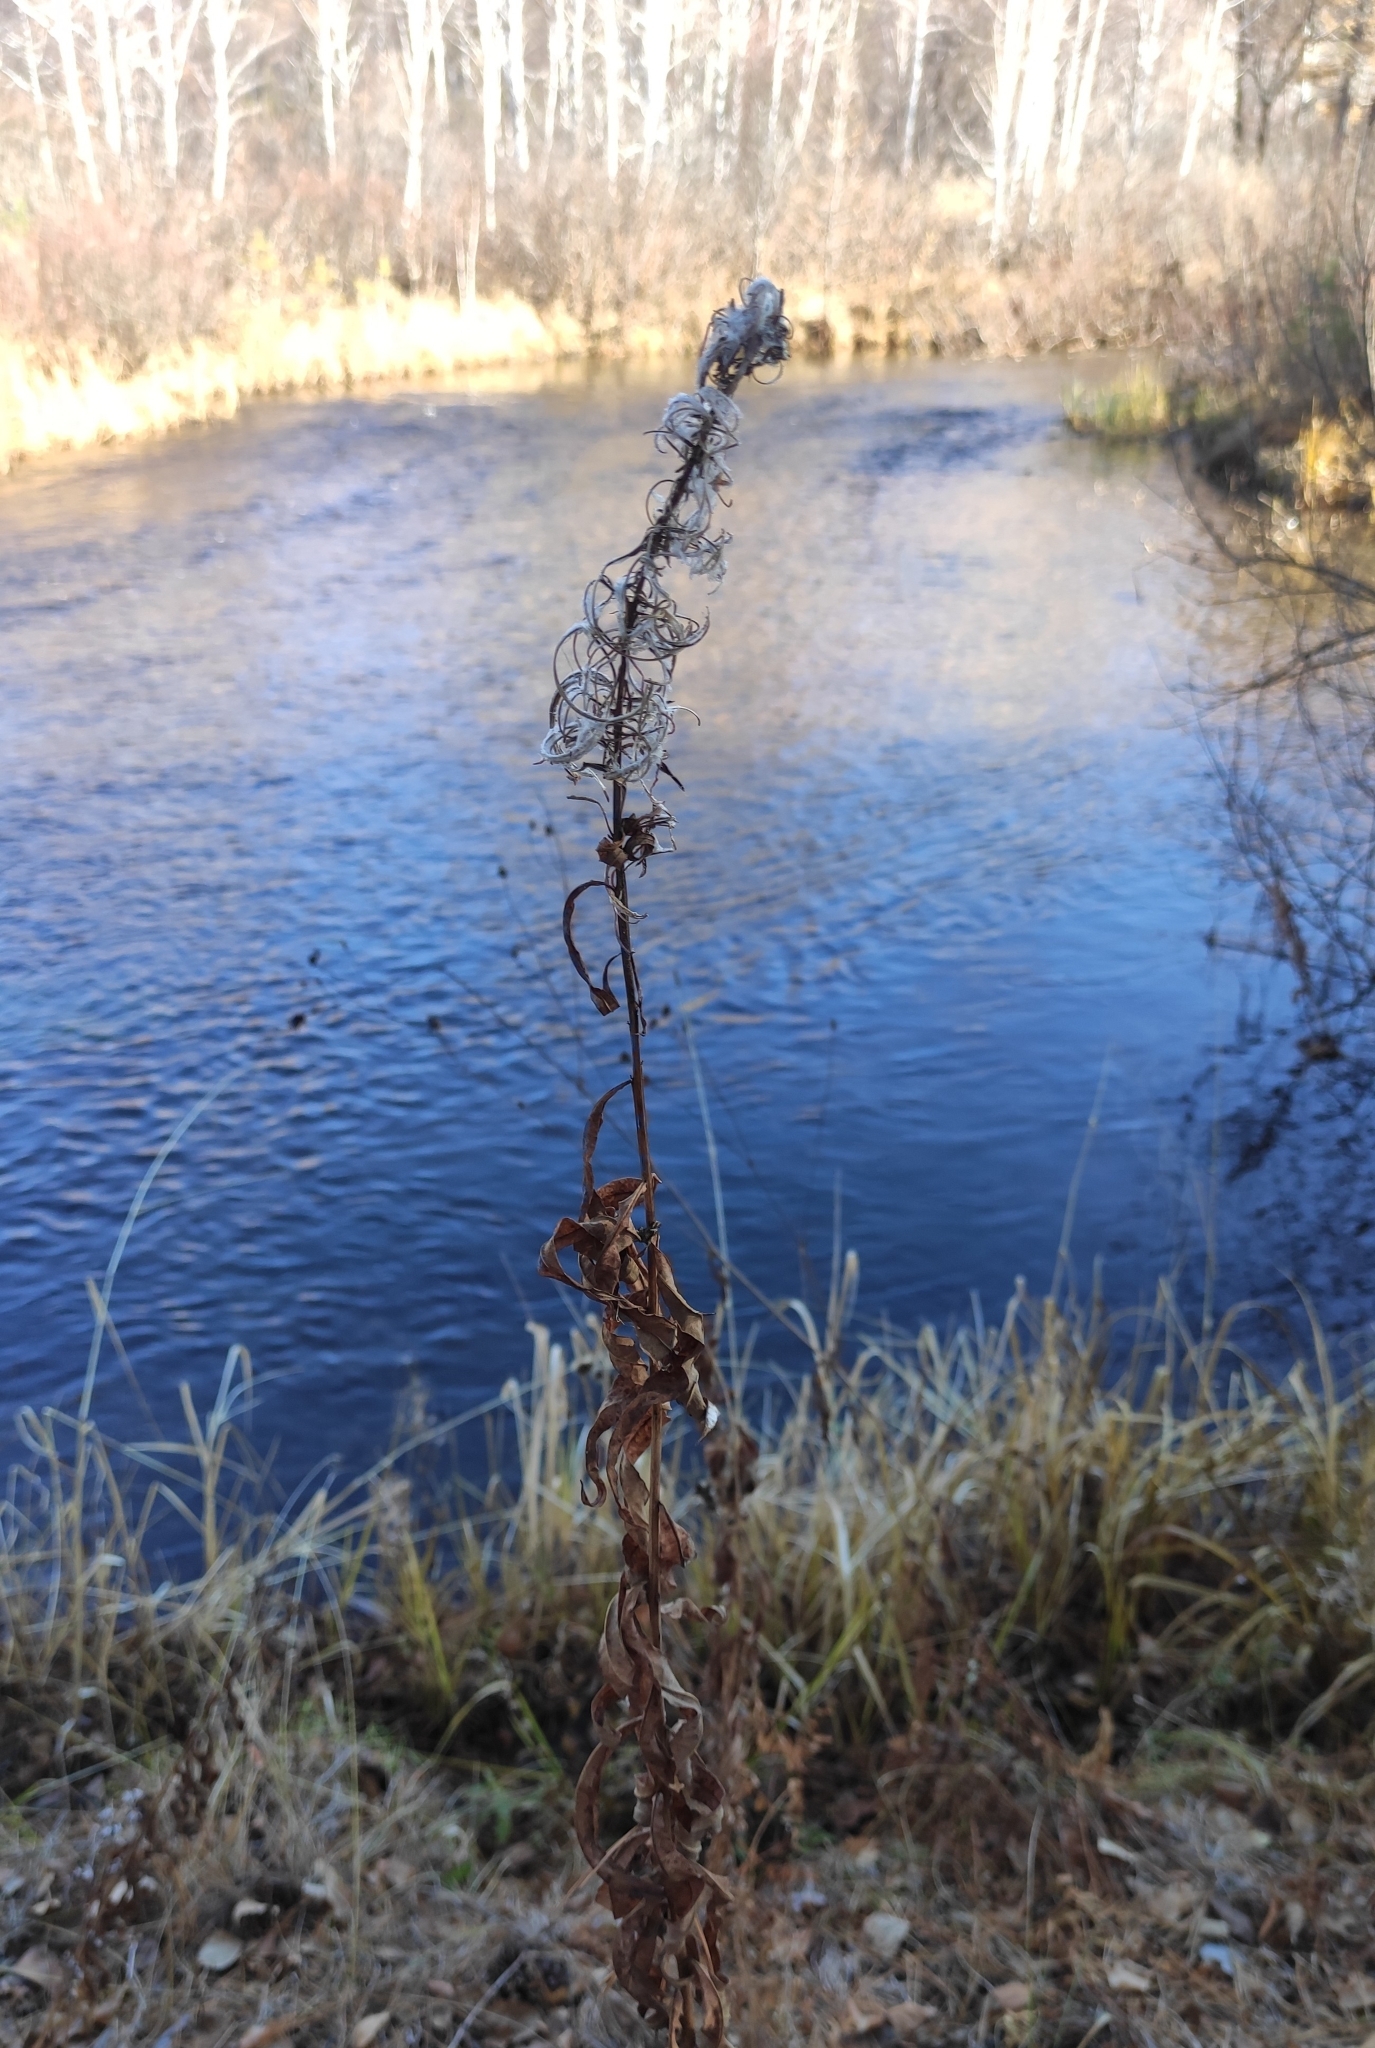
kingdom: Plantae
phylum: Tracheophyta
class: Magnoliopsida
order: Myrtales
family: Onagraceae
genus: Chamaenerion
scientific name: Chamaenerion angustifolium
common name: Fireweed
